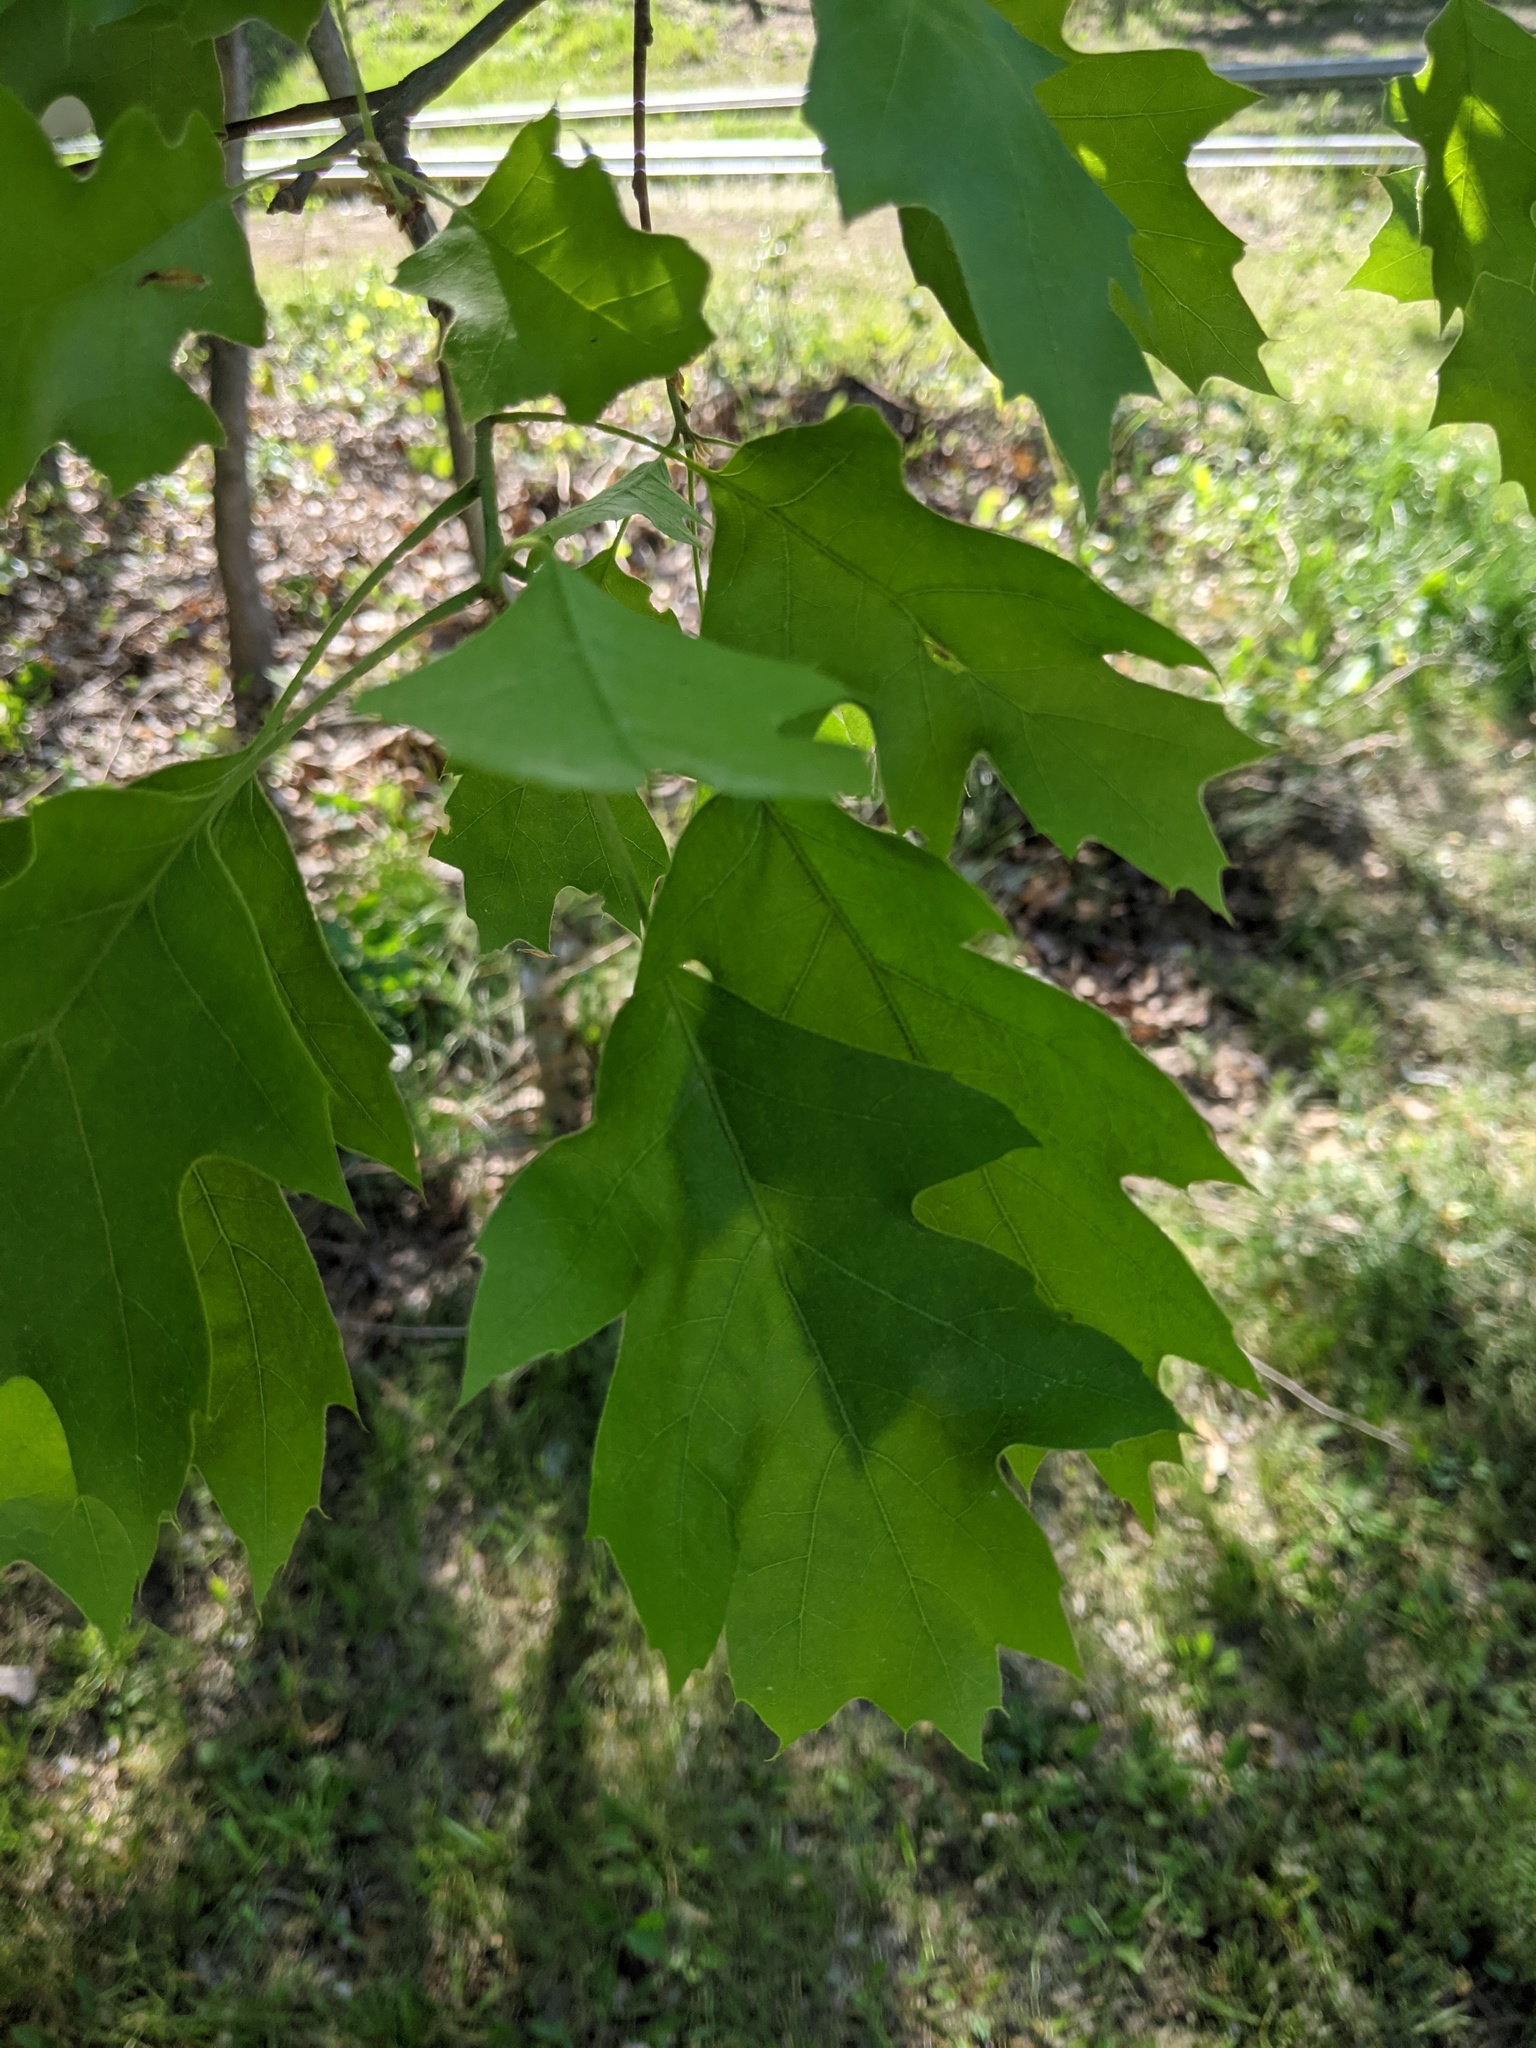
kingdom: Plantae
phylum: Tracheophyta
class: Magnoliopsida
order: Fagales
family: Fagaceae
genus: Quercus
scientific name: Quercus velutina
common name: Black oak
